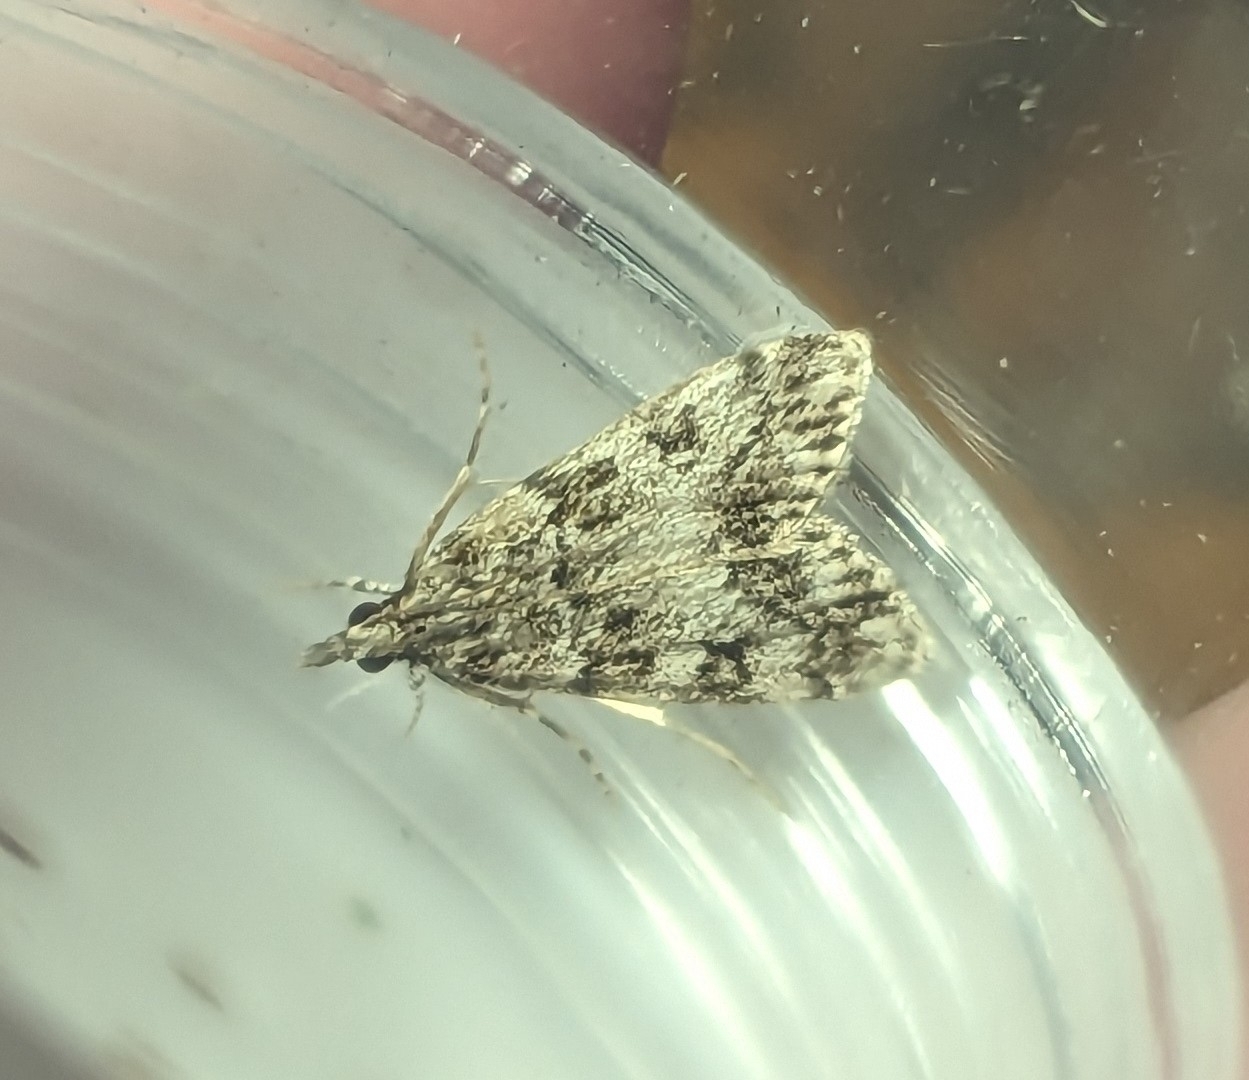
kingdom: Animalia
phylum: Arthropoda
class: Insecta
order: Lepidoptera
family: Crambidae
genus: Eudonia
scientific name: Eudonia lacustrata
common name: Little grey
